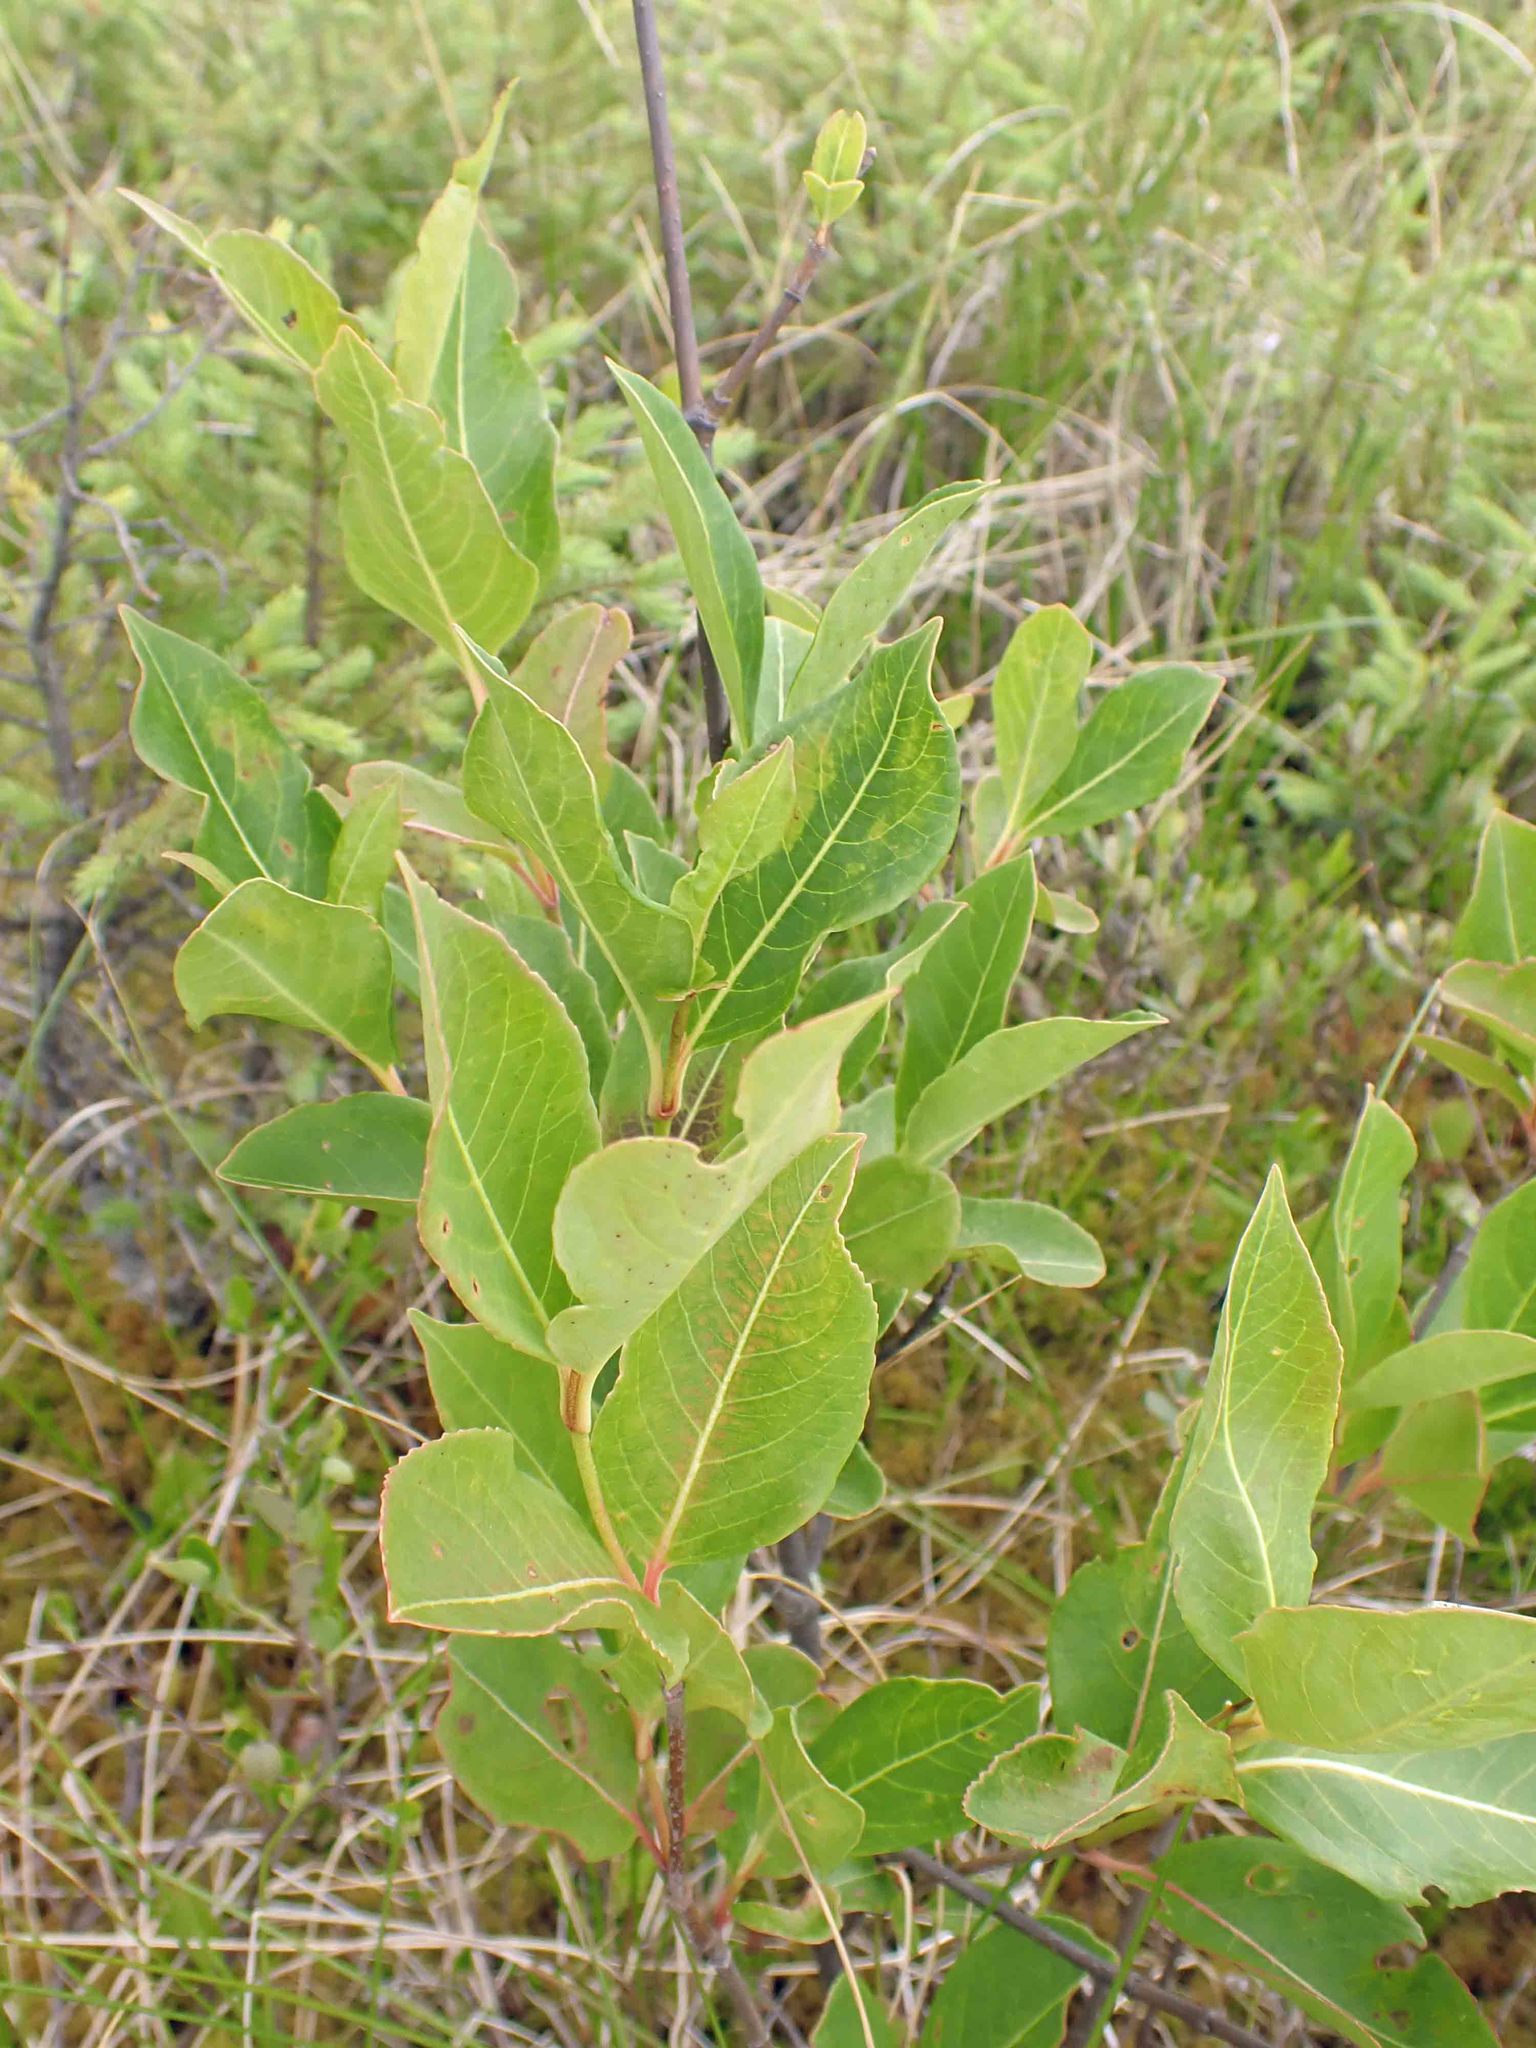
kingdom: Plantae
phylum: Tracheophyta
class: Magnoliopsida
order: Dipsacales
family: Viburnaceae
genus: Viburnum
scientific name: Viburnum cassinoides
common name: Swamp haw
